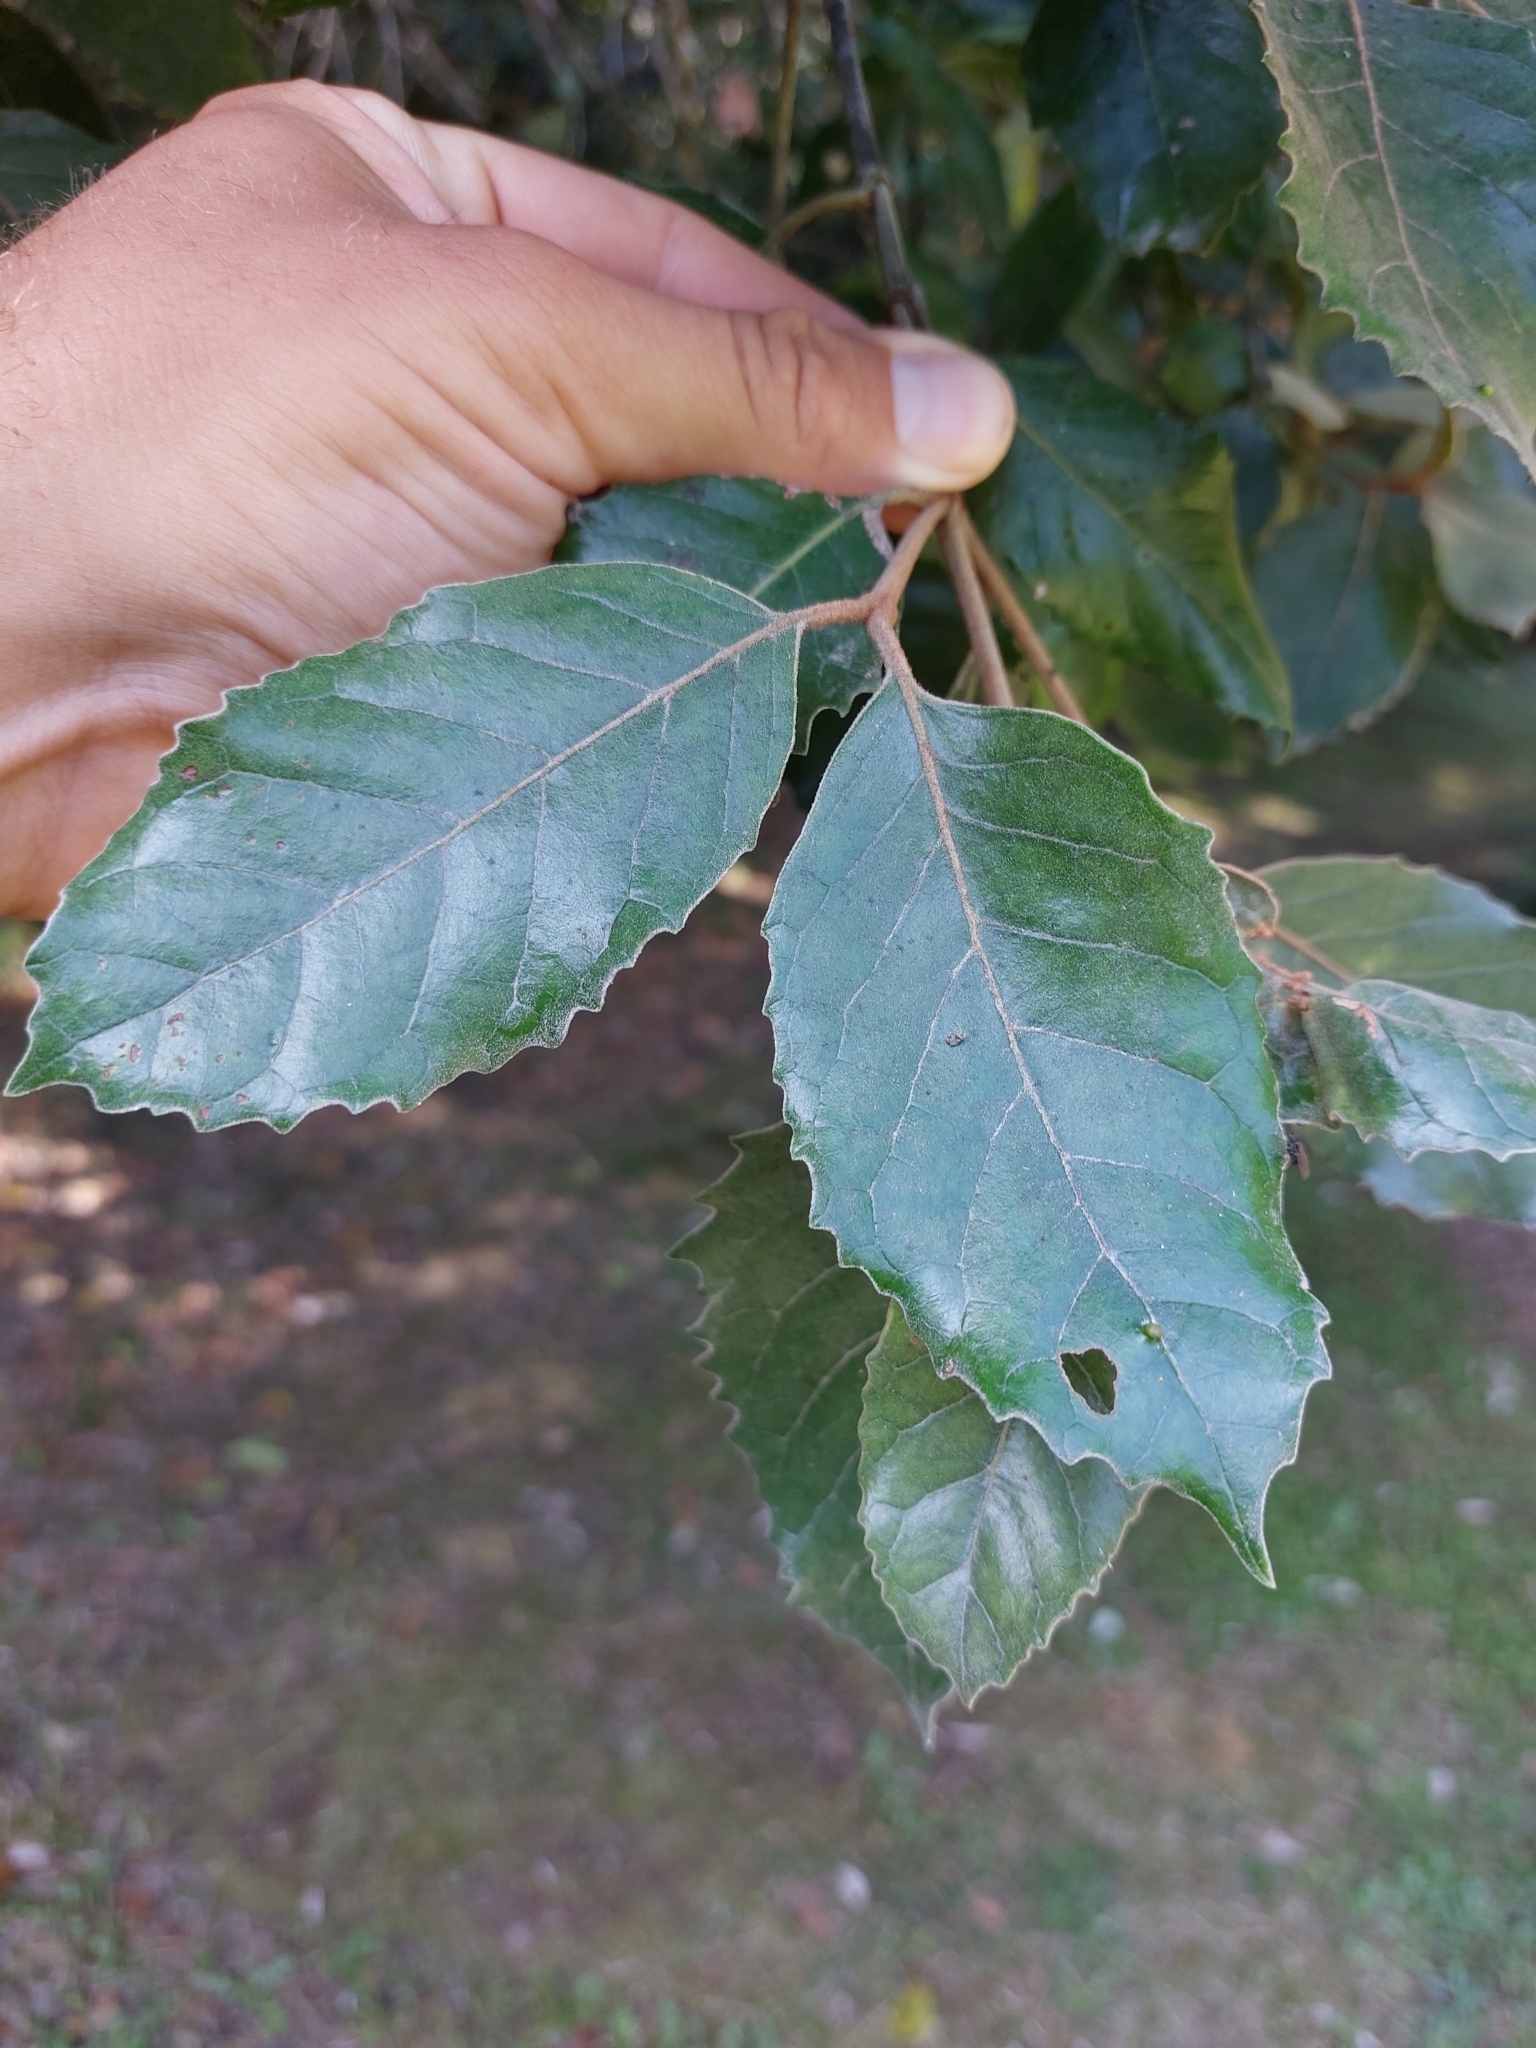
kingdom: Plantae
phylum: Tracheophyta
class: Magnoliopsida
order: Cornales
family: Curtisiaceae
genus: Curtisia
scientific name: Curtisia dentata
